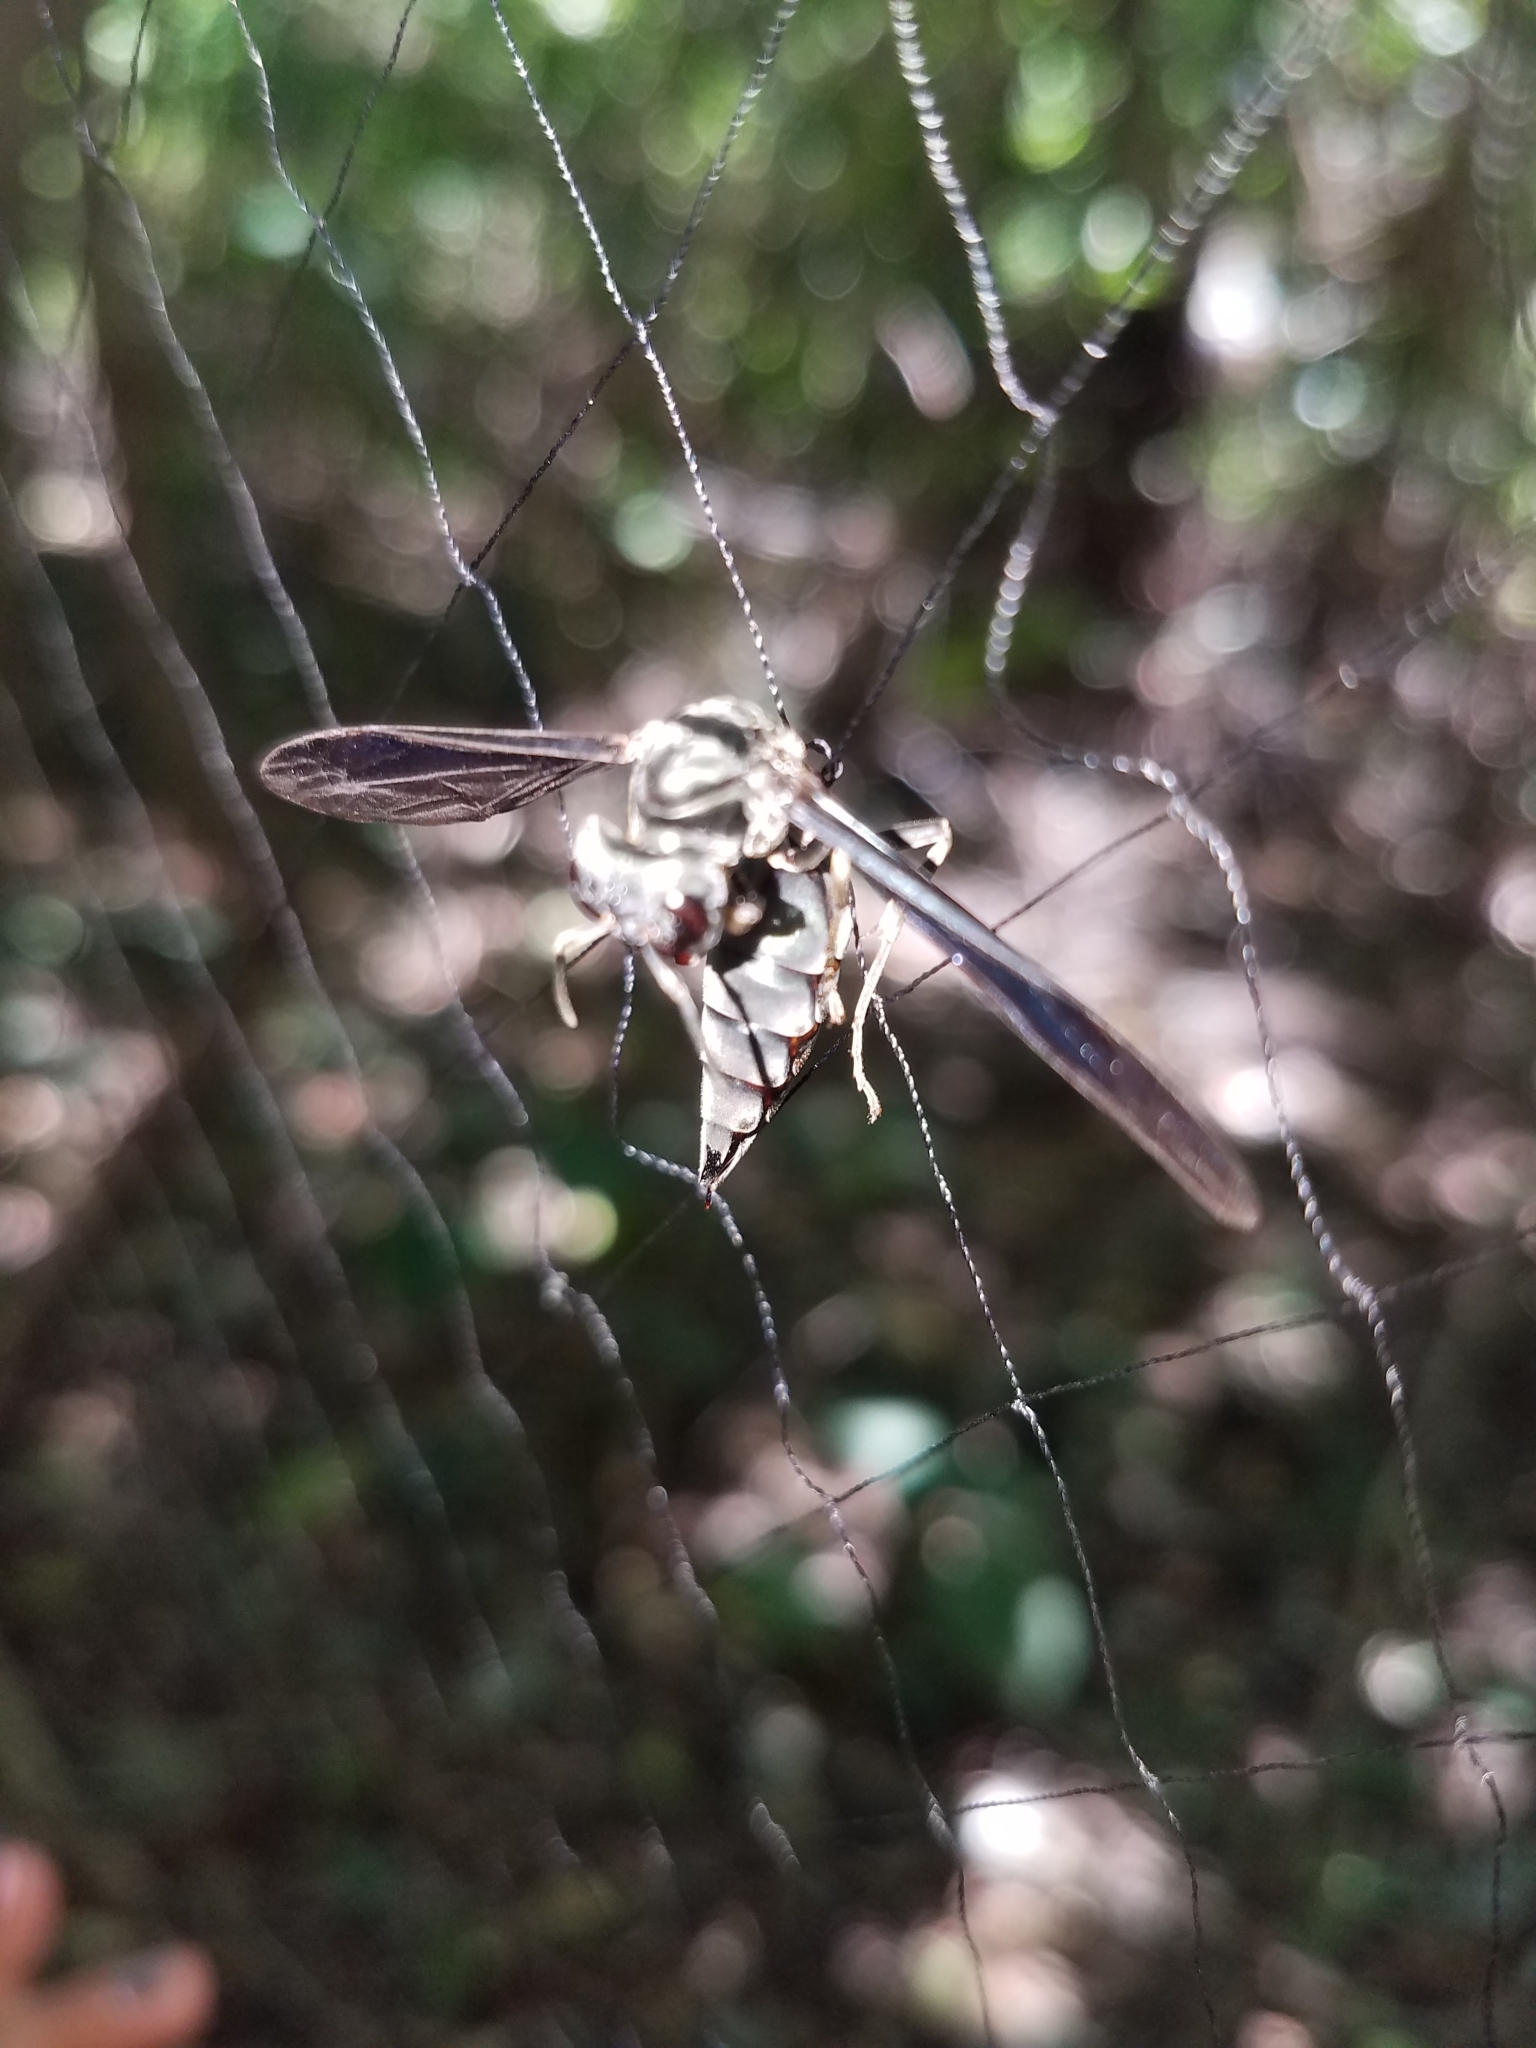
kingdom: Animalia
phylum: Arthropoda
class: Insecta
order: Hymenoptera
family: Vespidae
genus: Synoeca
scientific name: Synoeca septentrionalis
